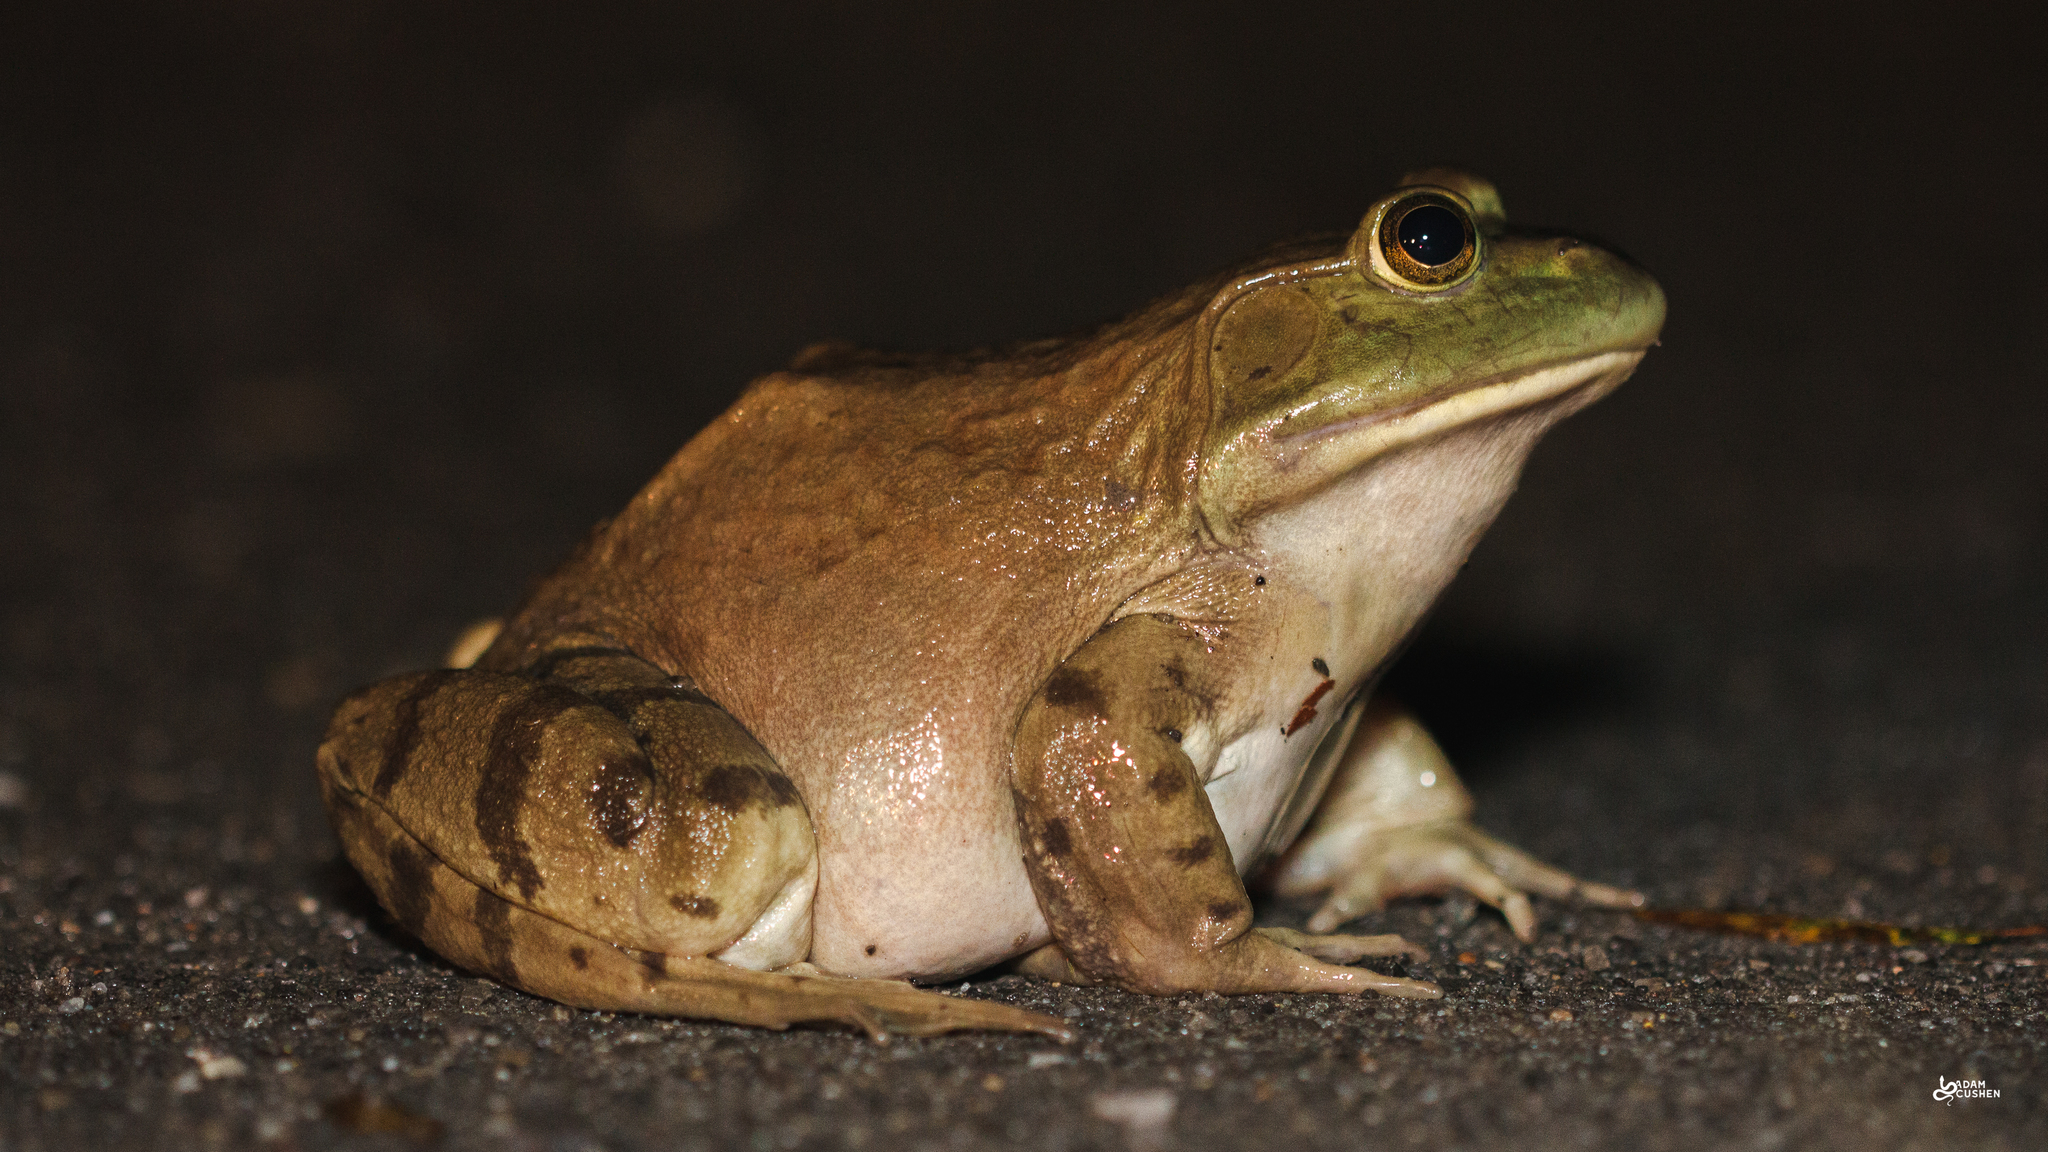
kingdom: Animalia
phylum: Chordata
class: Amphibia
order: Anura
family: Ranidae
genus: Lithobates
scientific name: Lithobates catesbeianus
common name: American bullfrog
